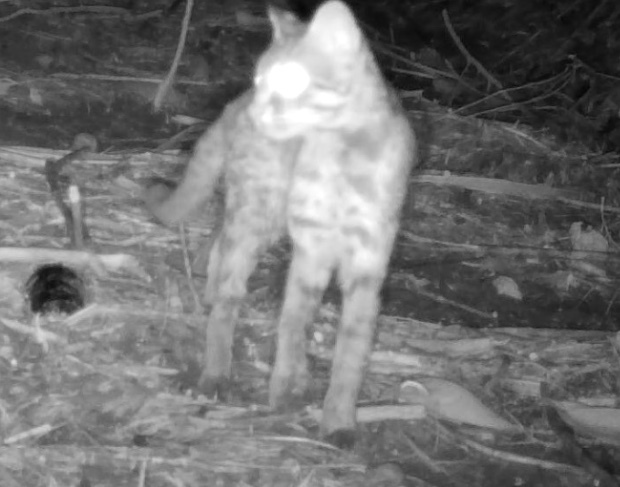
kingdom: Animalia
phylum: Chordata
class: Mammalia
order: Carnivora
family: Felidae
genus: Prionailurus
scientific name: Prionailurus bengalensis
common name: Leopard cat
